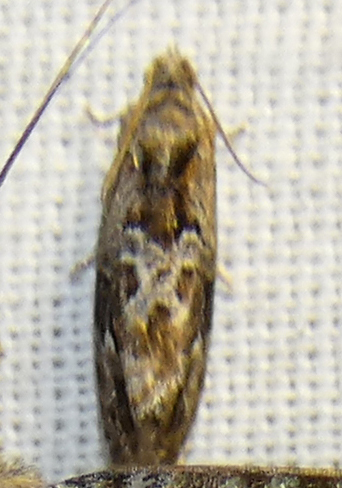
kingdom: Animalia
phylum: Arthropoda
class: Insecta
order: Lepidoptera
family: Tortricidae
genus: Eudemis
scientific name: Eudemis porphyrana
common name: Apple marble
